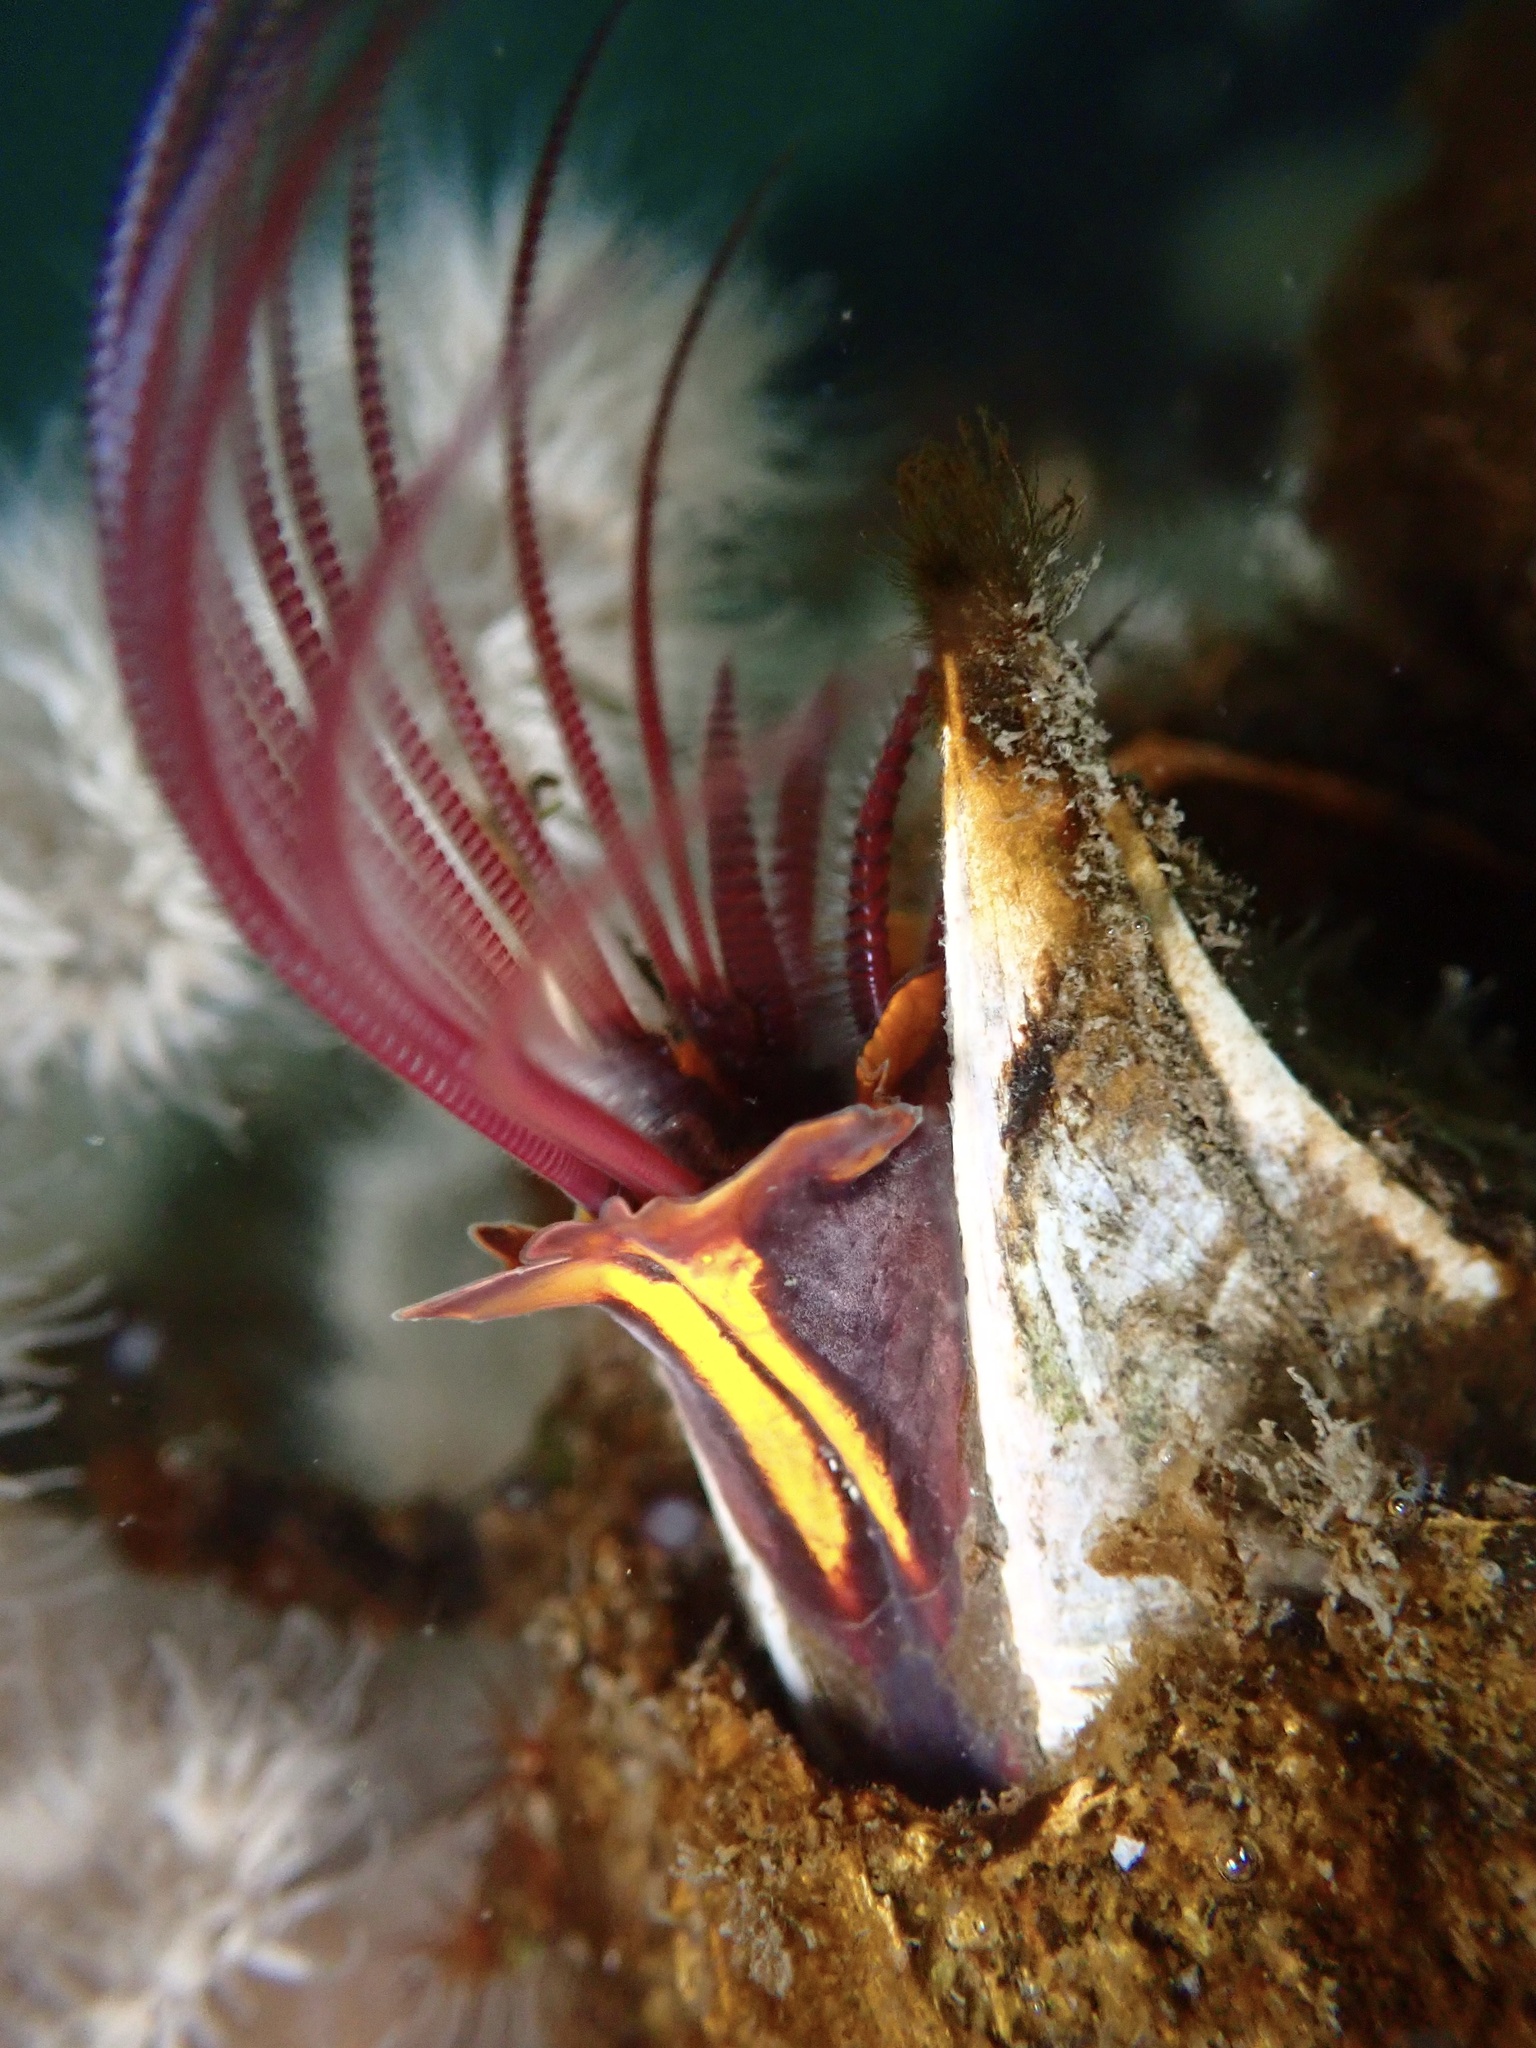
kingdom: Animalia
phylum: Arthropoda
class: Maxillopoda
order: Sessilia
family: Balanidae
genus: Balanus
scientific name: Balanus nubilus
